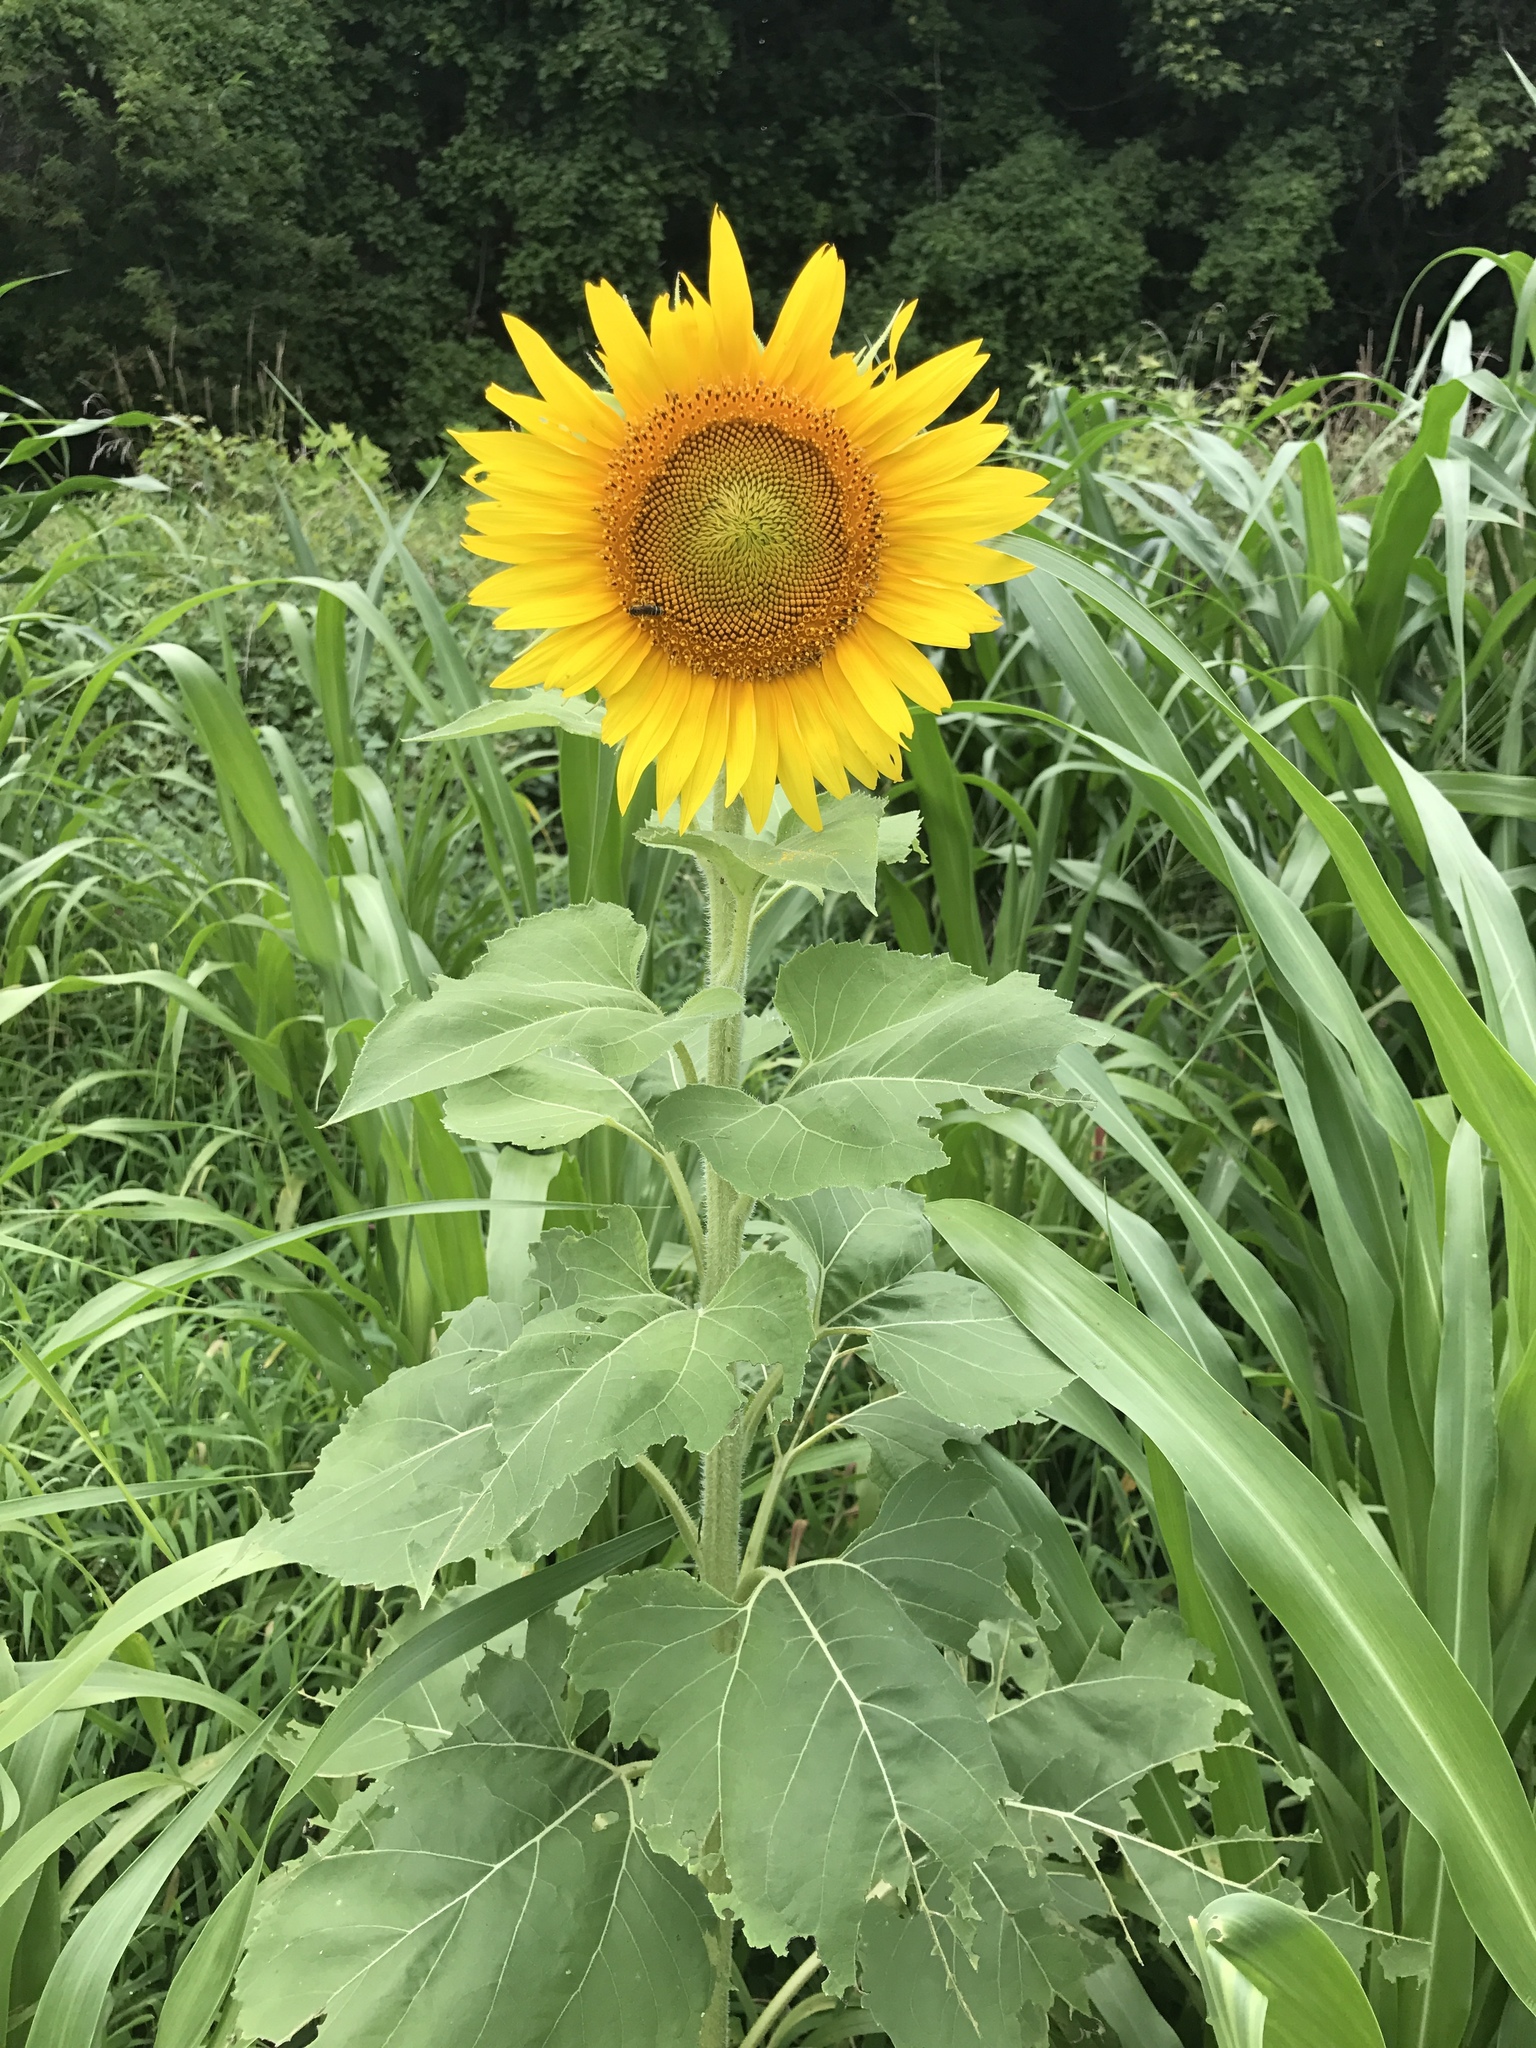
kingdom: Plantae
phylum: Tracheophyta
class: Magnoliopsida
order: Asterales
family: Asteraceae
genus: Helianthus
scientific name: Helianthus annuus
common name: Sunflower
